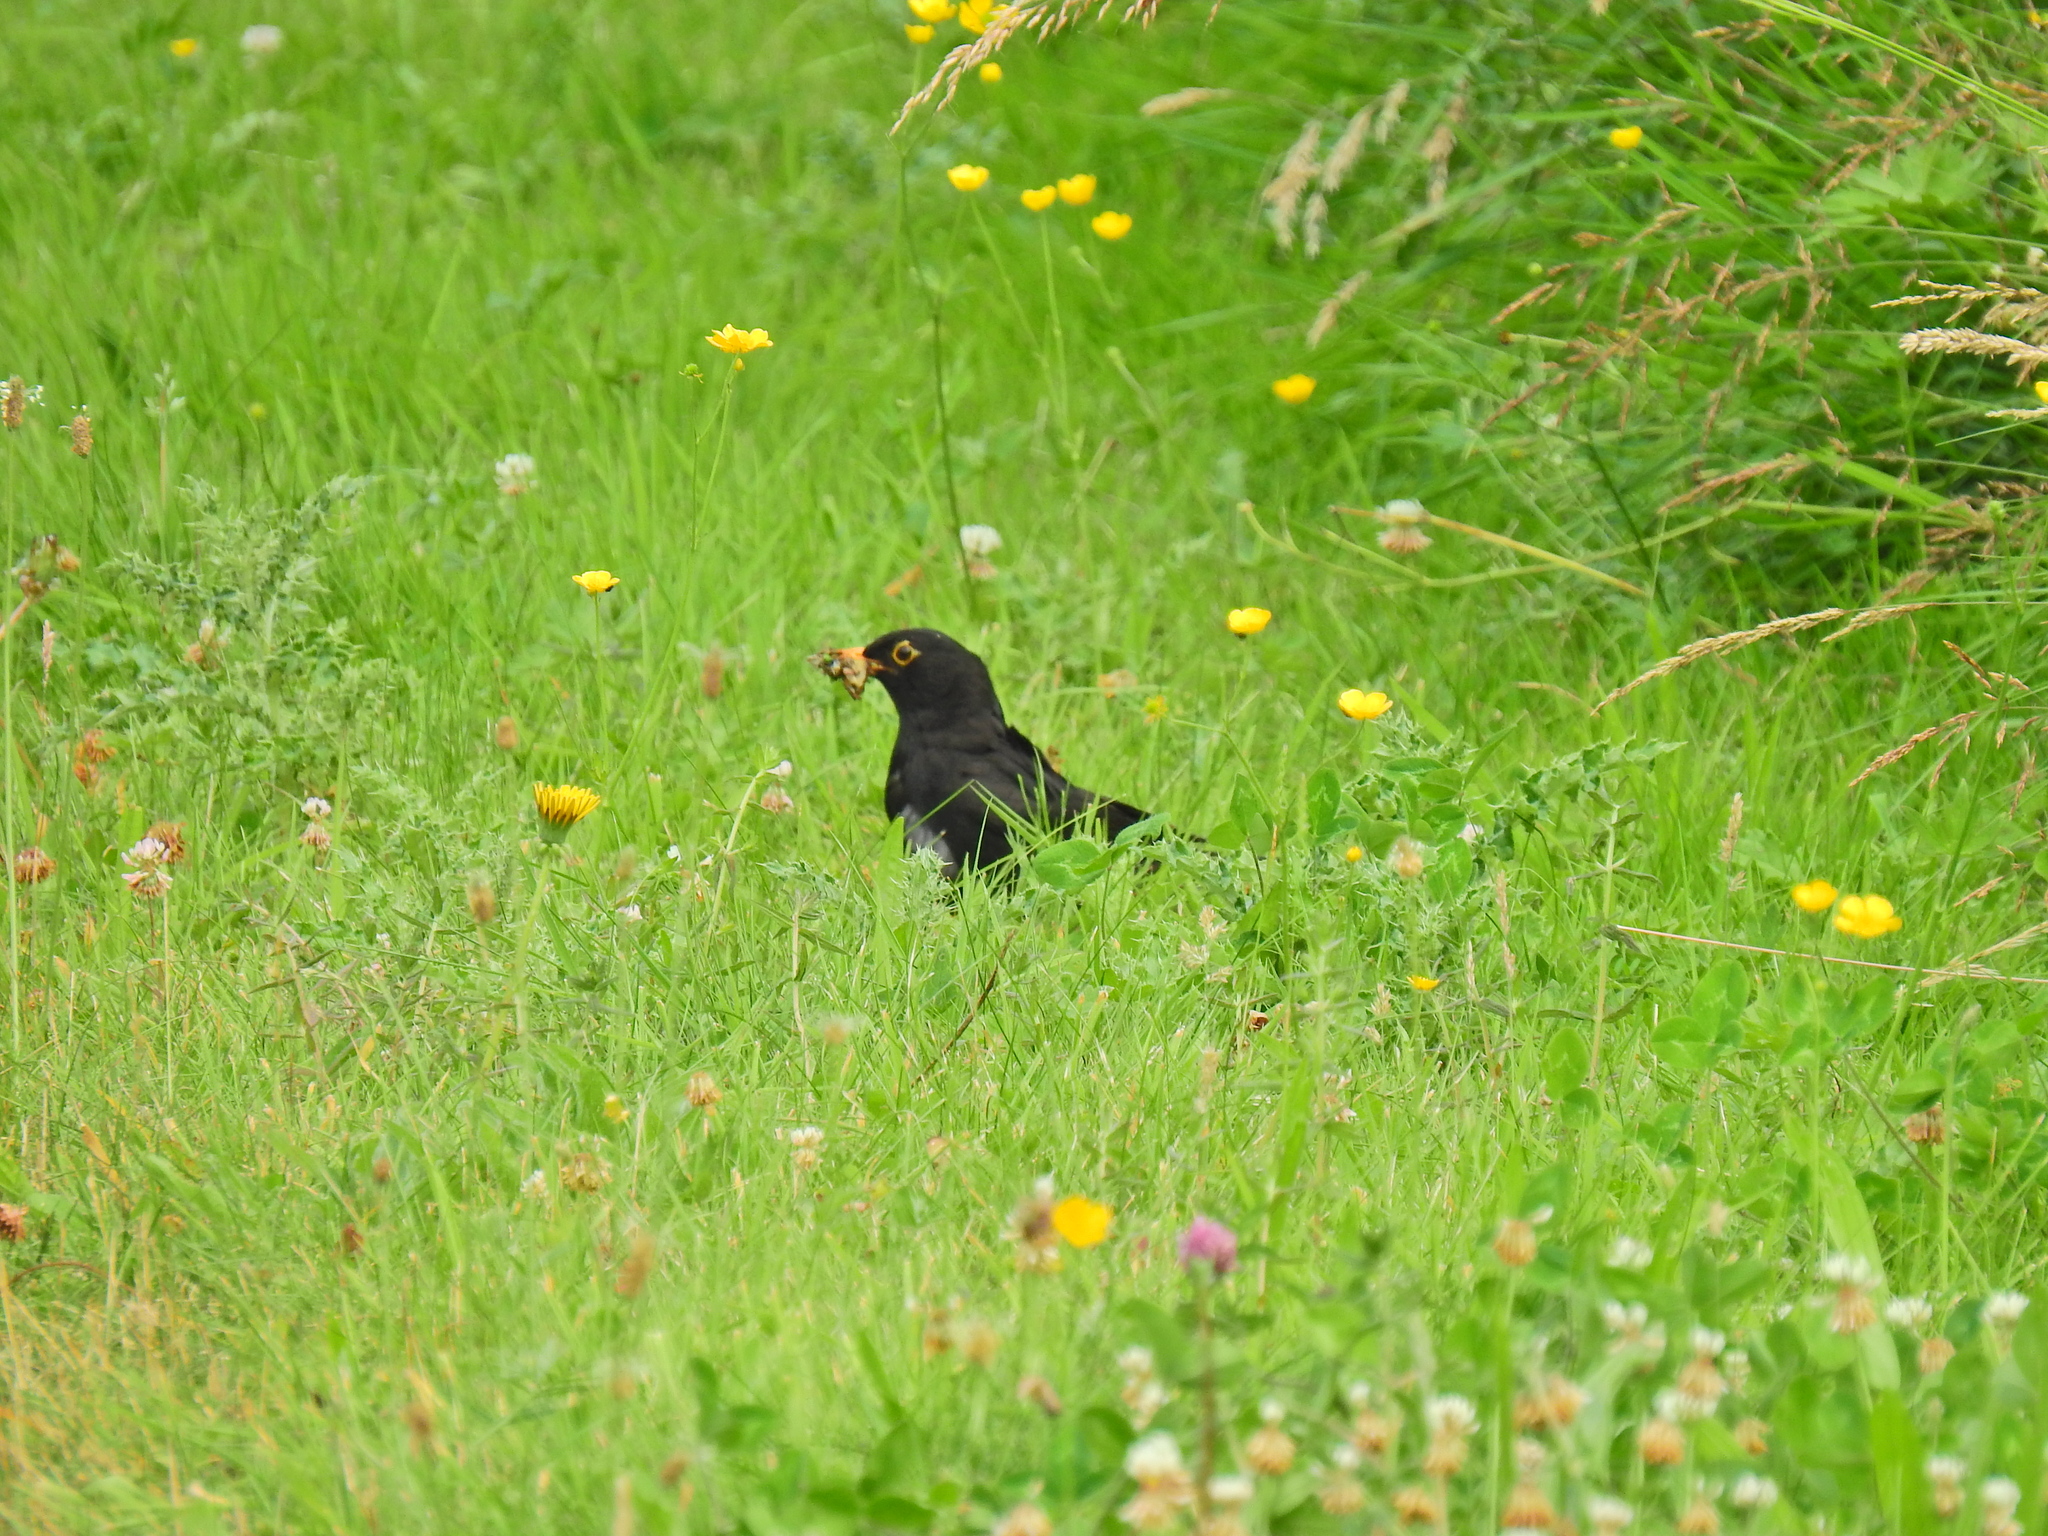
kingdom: Animalia
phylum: Chordata
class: Aves
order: Passeriformes
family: Turdidae
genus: Turdus
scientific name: Turdus merula
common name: Common blackbird
